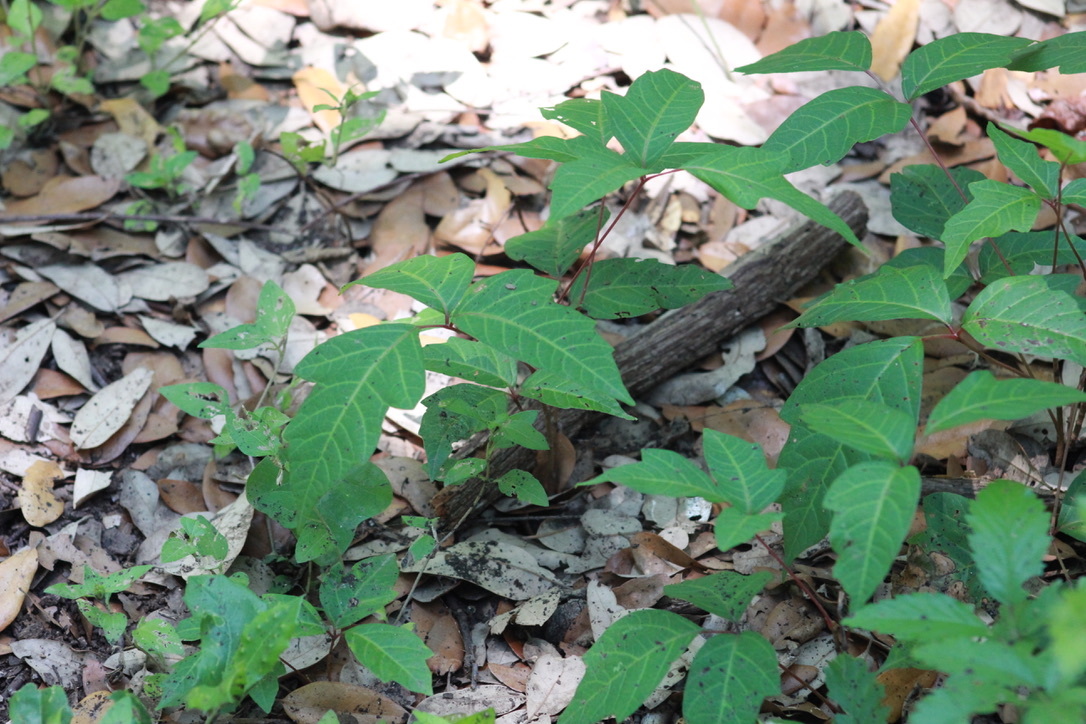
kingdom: Plantae
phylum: Tracheophyta
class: Magnoliopsida
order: Sapindales
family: Anacardiaceae
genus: Toxicodendron
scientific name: Toxicodendron radicans
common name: Poison ivy
